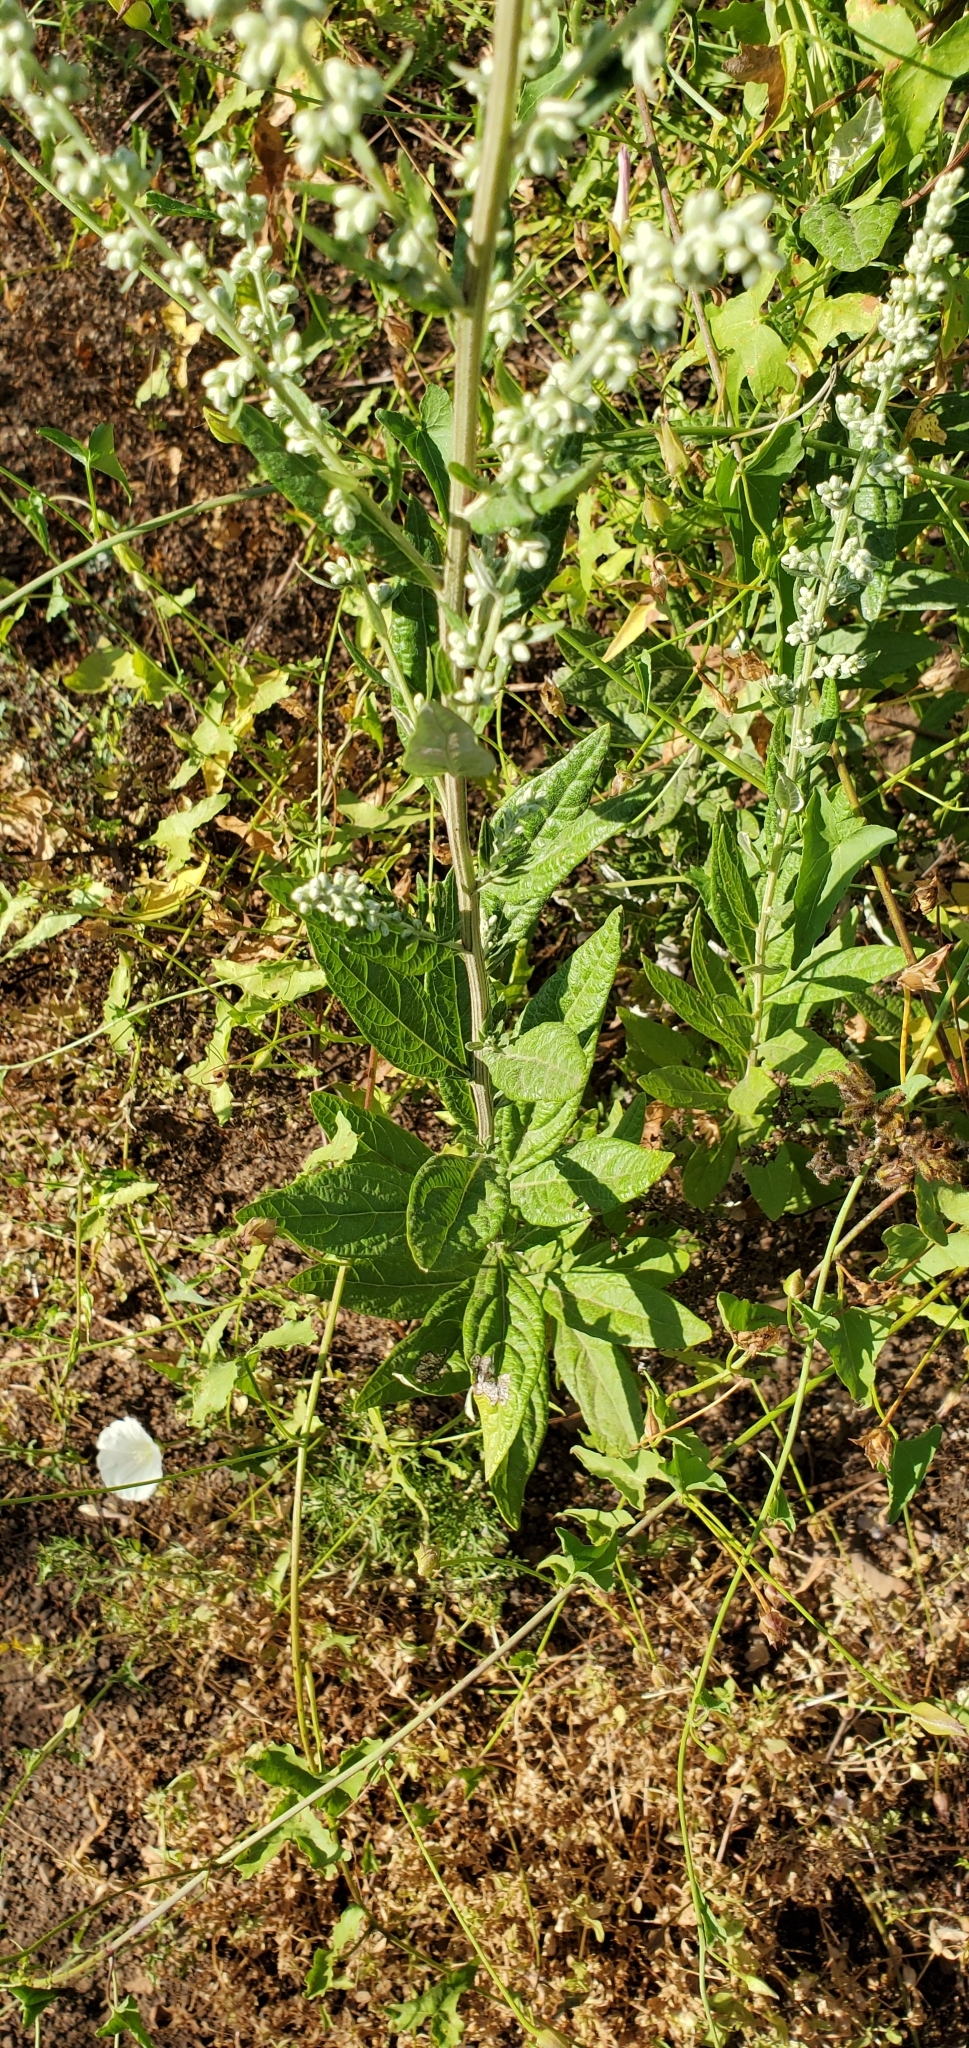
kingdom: Plantae
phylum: Tracheophyta
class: Magnoliopsida
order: Asterales
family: Asteraceae
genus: Artemisia
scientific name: Artemisia douglasiana
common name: Northwest mugwort
